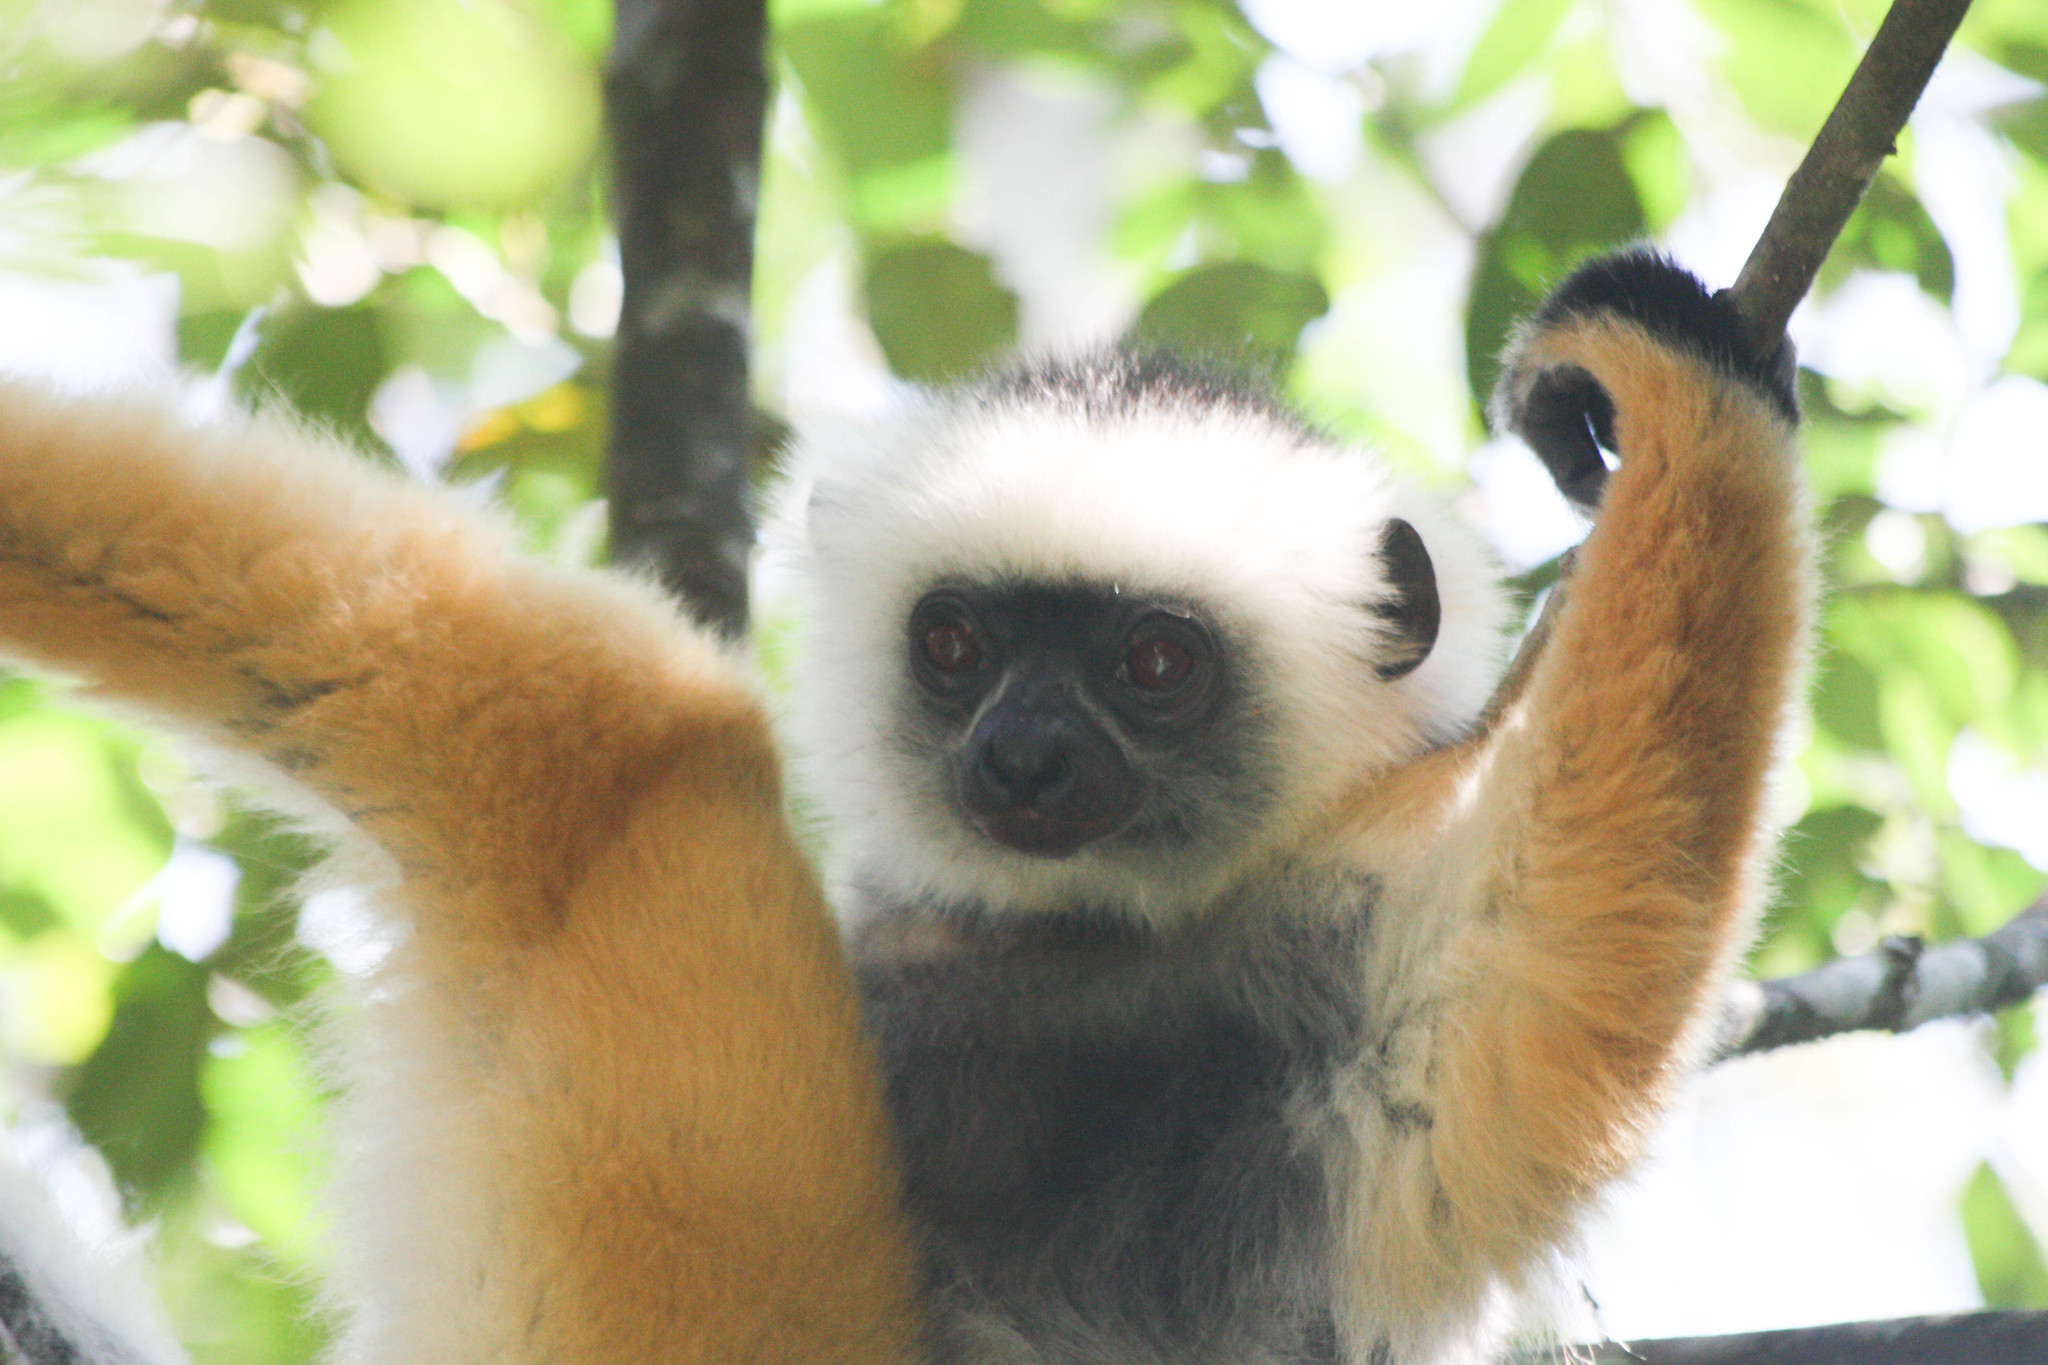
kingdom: Animalia
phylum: Chordata
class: Mammalia
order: Primates
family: Indriidae
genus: Propithecus
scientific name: Propithecus diadema
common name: Diademed sifaka
